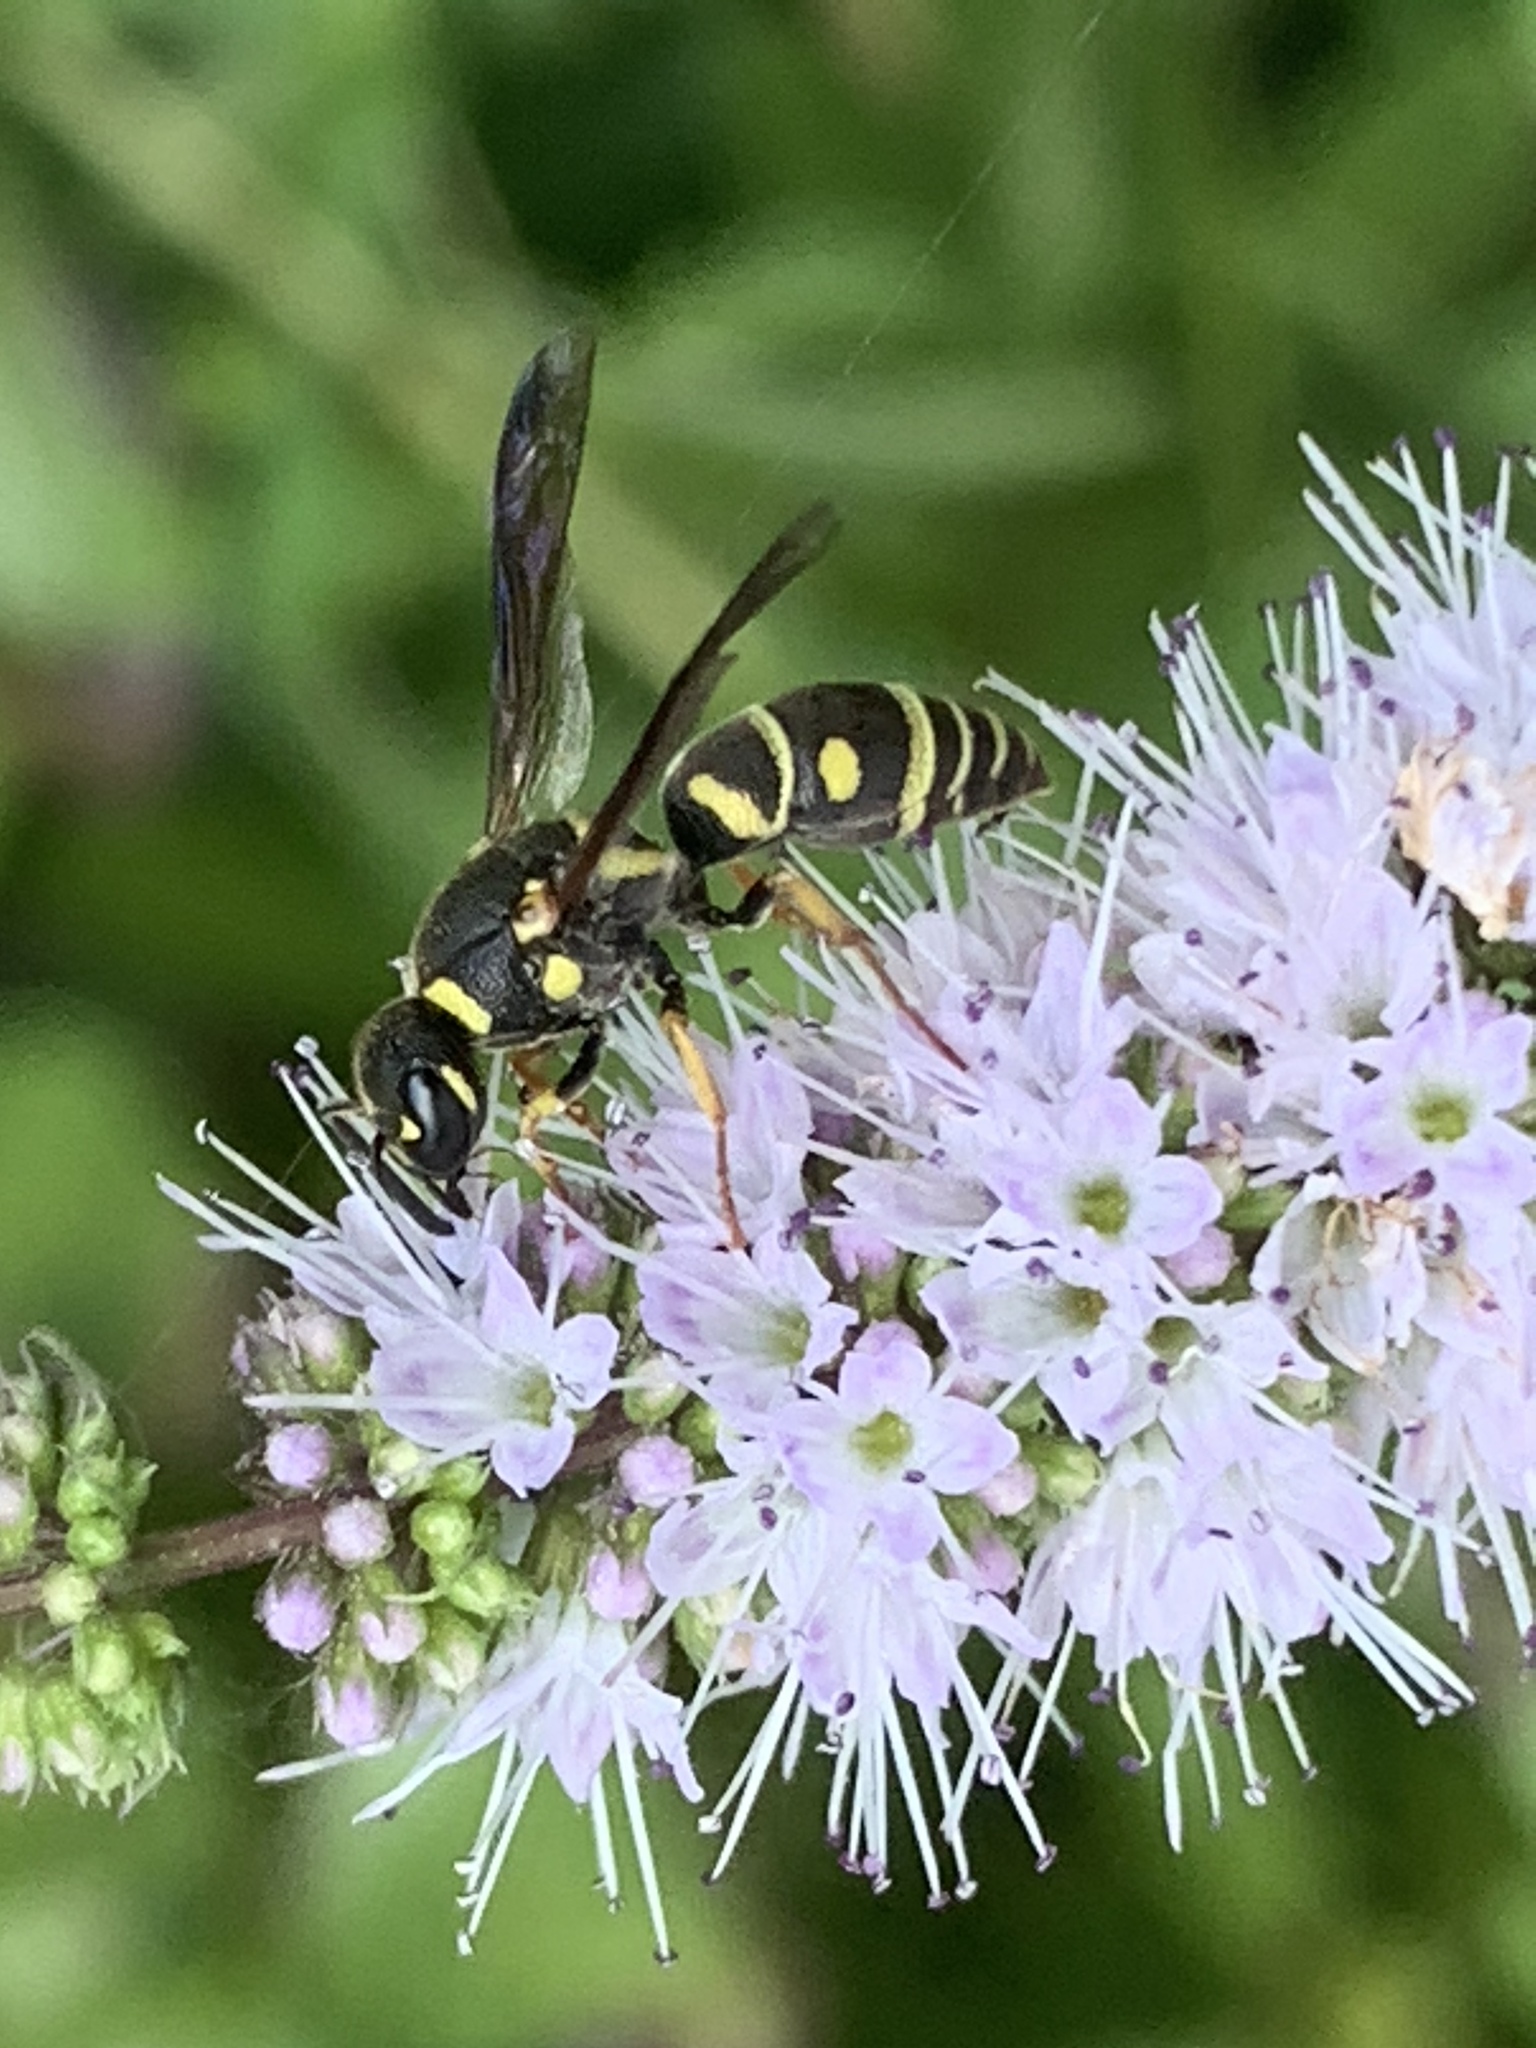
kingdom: Animalia
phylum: Arthropoda
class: Insecta
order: Hymenoptera
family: Eumenidae
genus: Parancistrocerus
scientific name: Parancistrocerus leionotus
